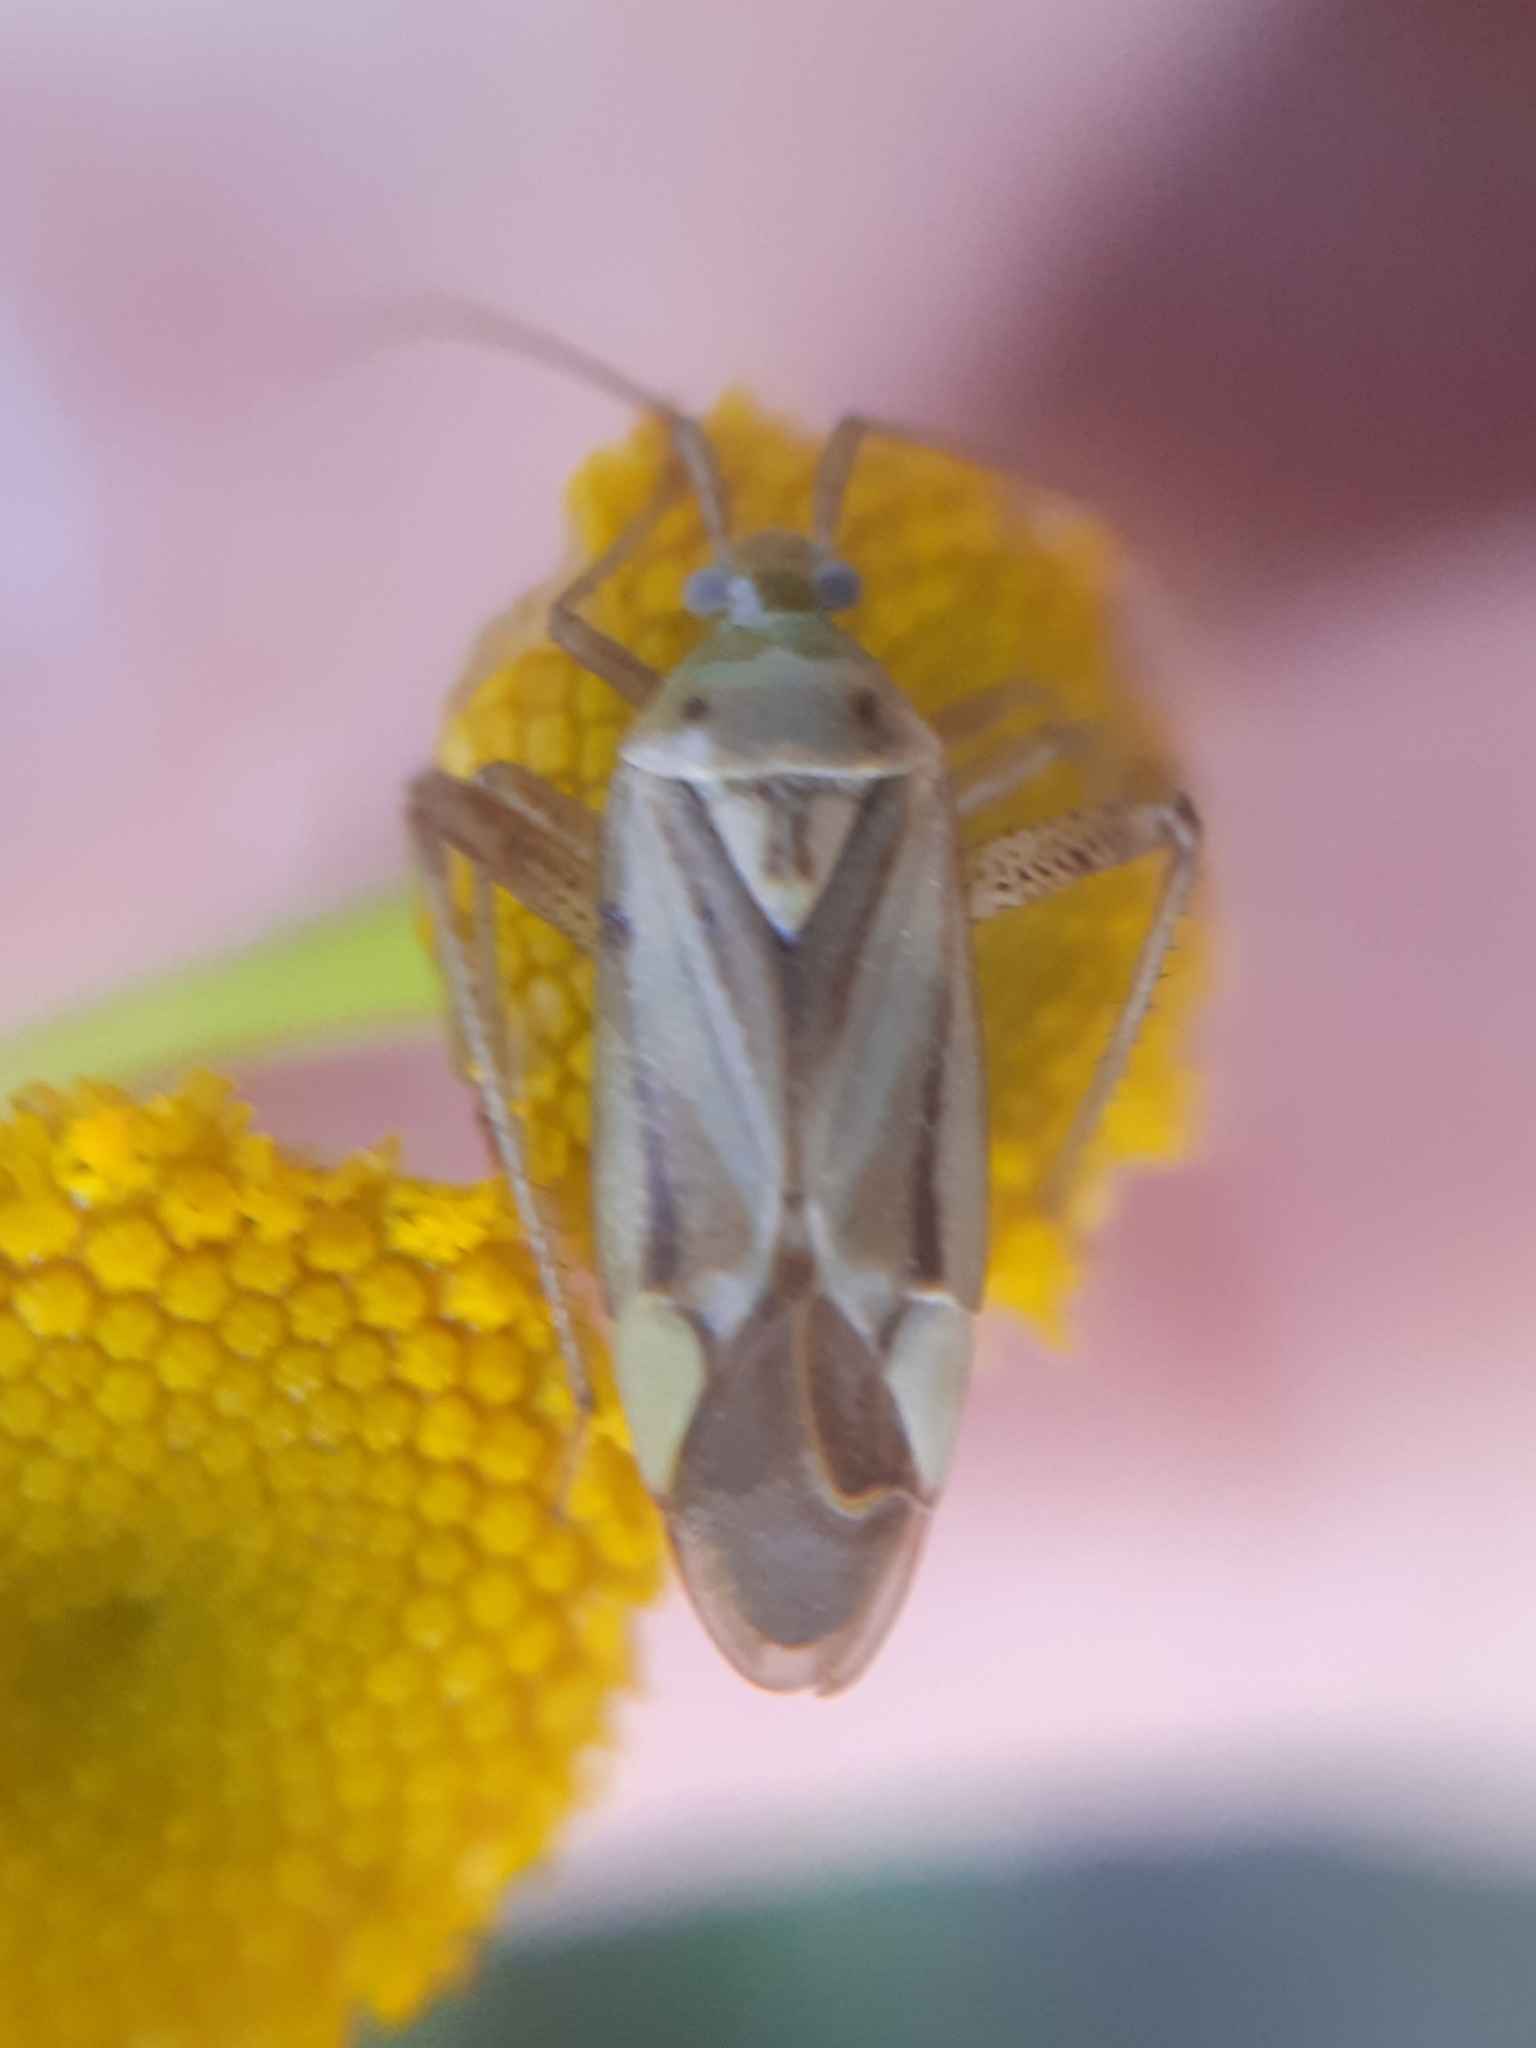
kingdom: Animalia
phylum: Arthropoda
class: Insecta
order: Hemiptera
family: Miridae
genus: Adelphocoris
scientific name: Adelphocoris lineolatus
